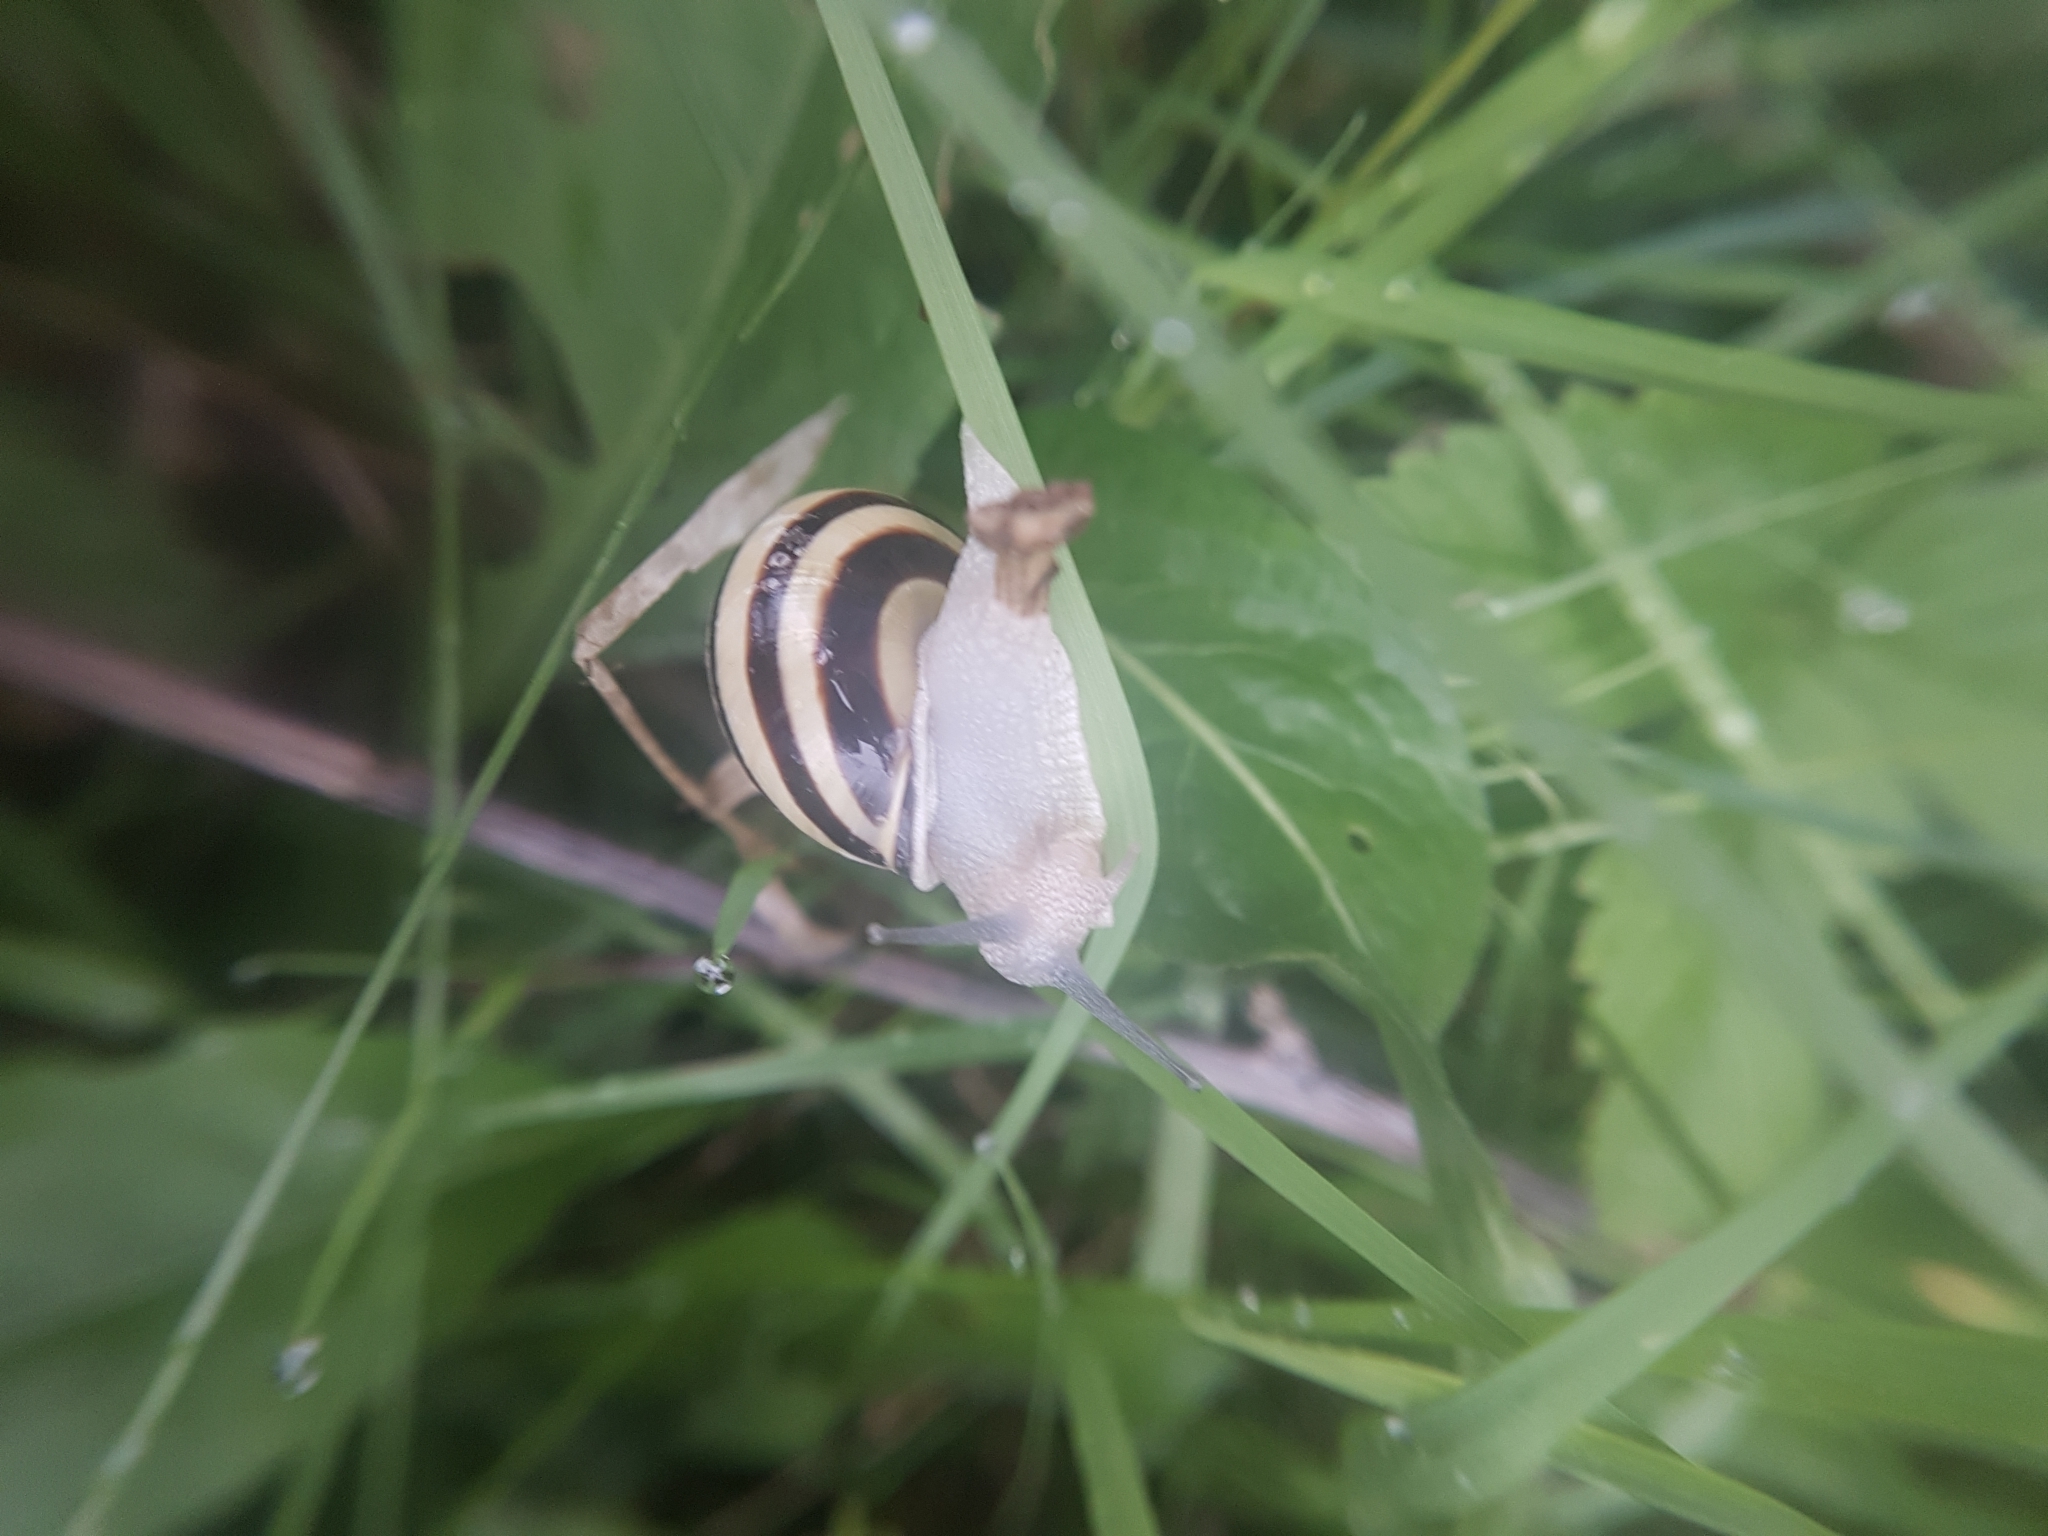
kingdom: Animalia
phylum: Mollusca
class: Gastropoda
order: Stylommatophora
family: Helicidae
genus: Cepaea
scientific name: Cepaea nemoralis
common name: Grovesnail
